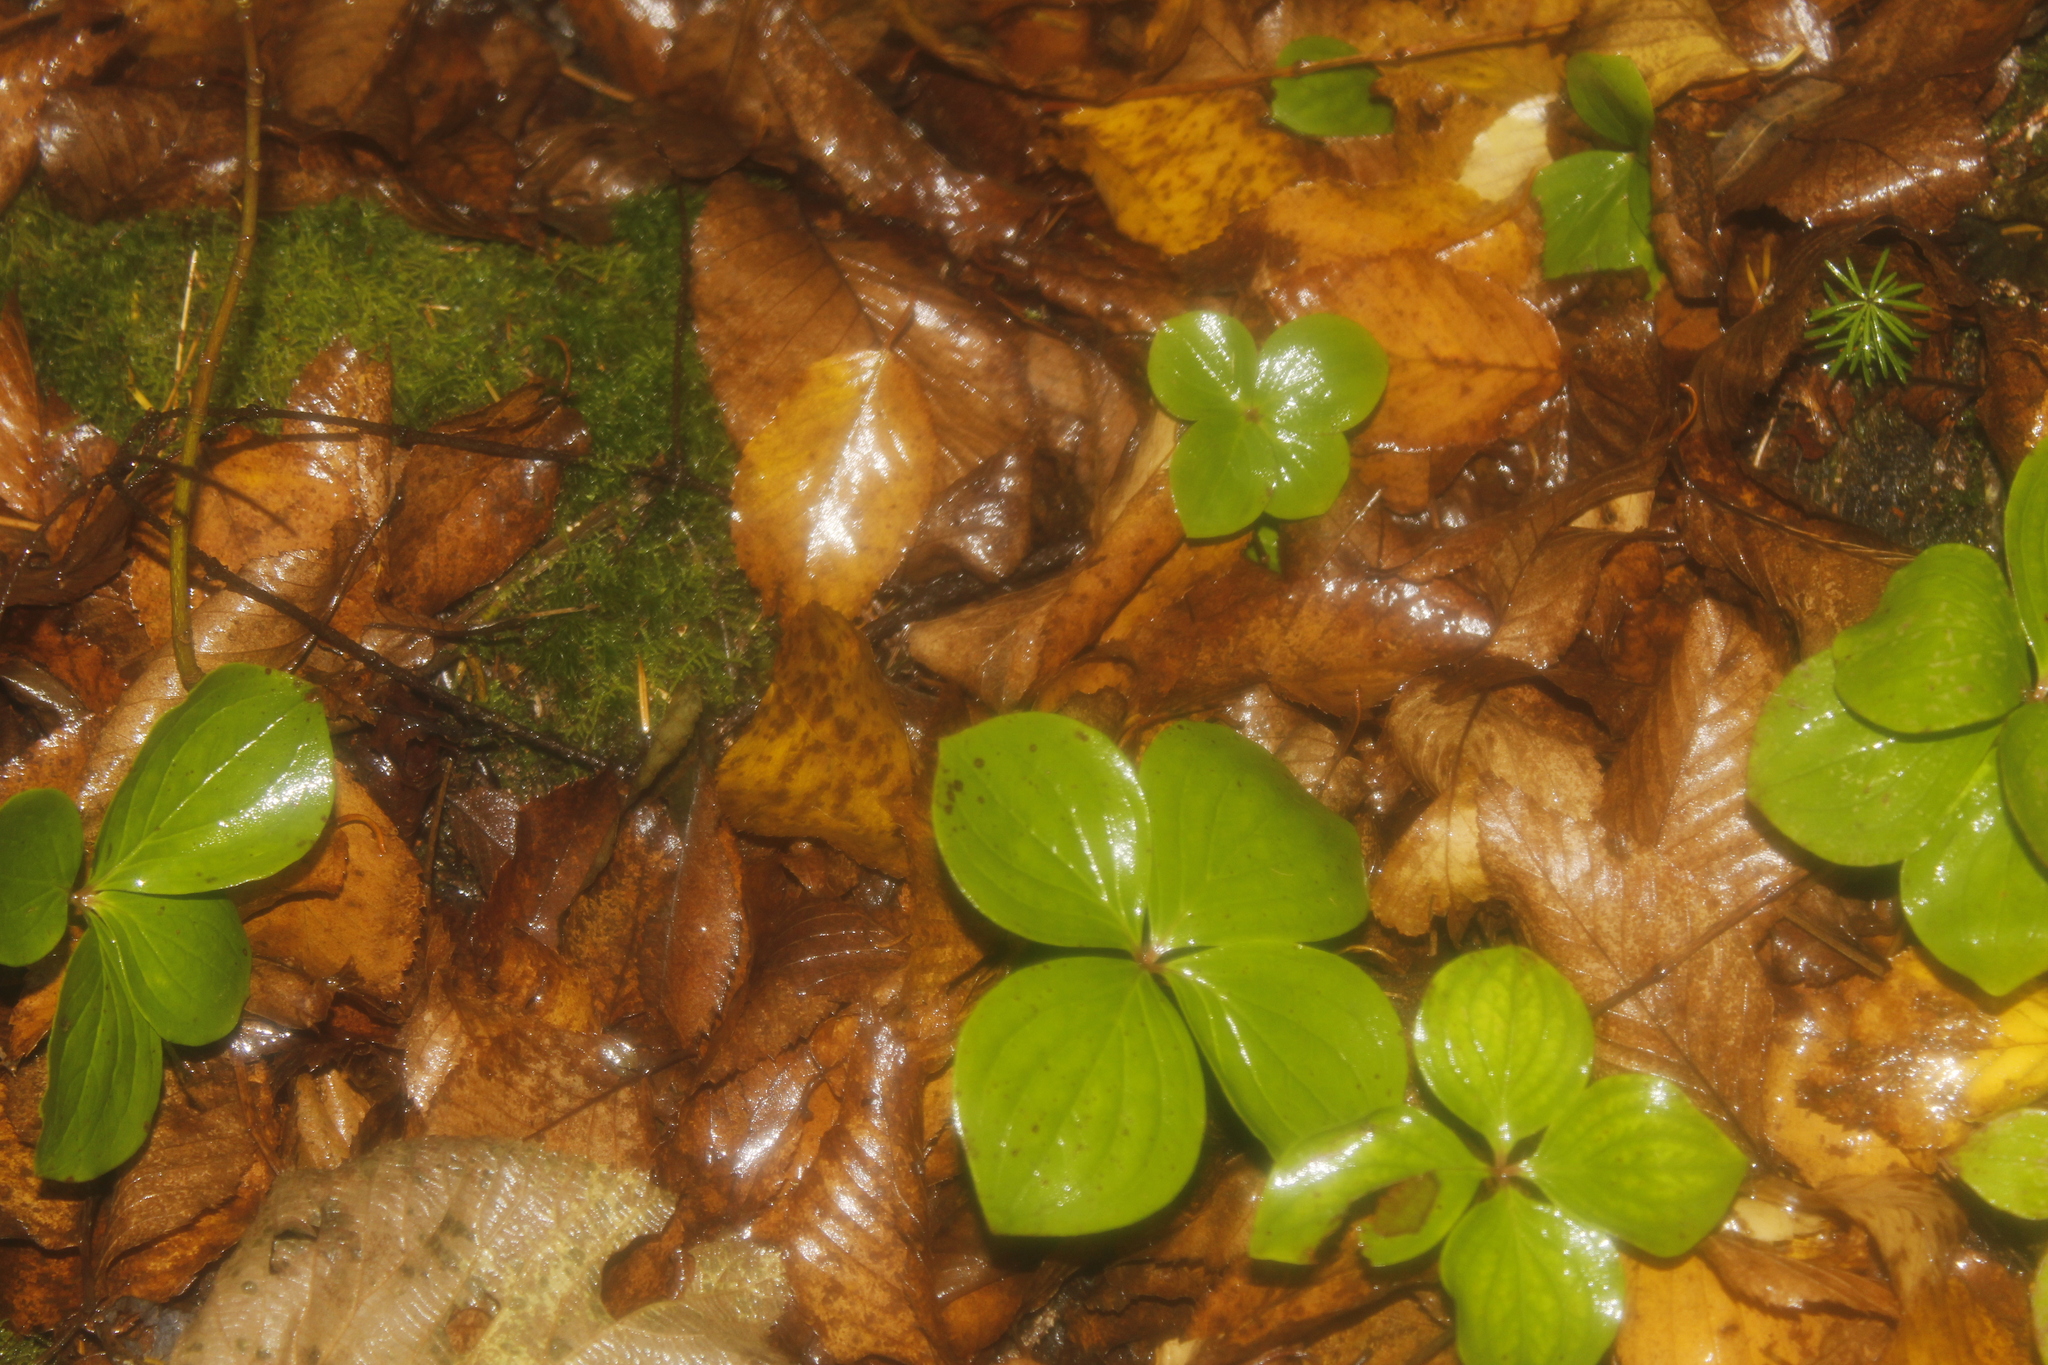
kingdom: Plantae
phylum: Tracheophyta
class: Magnoliopsida
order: Cornales
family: Cornaceae
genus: Cornus
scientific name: Cornus canadensis
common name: Creeping dogwood
